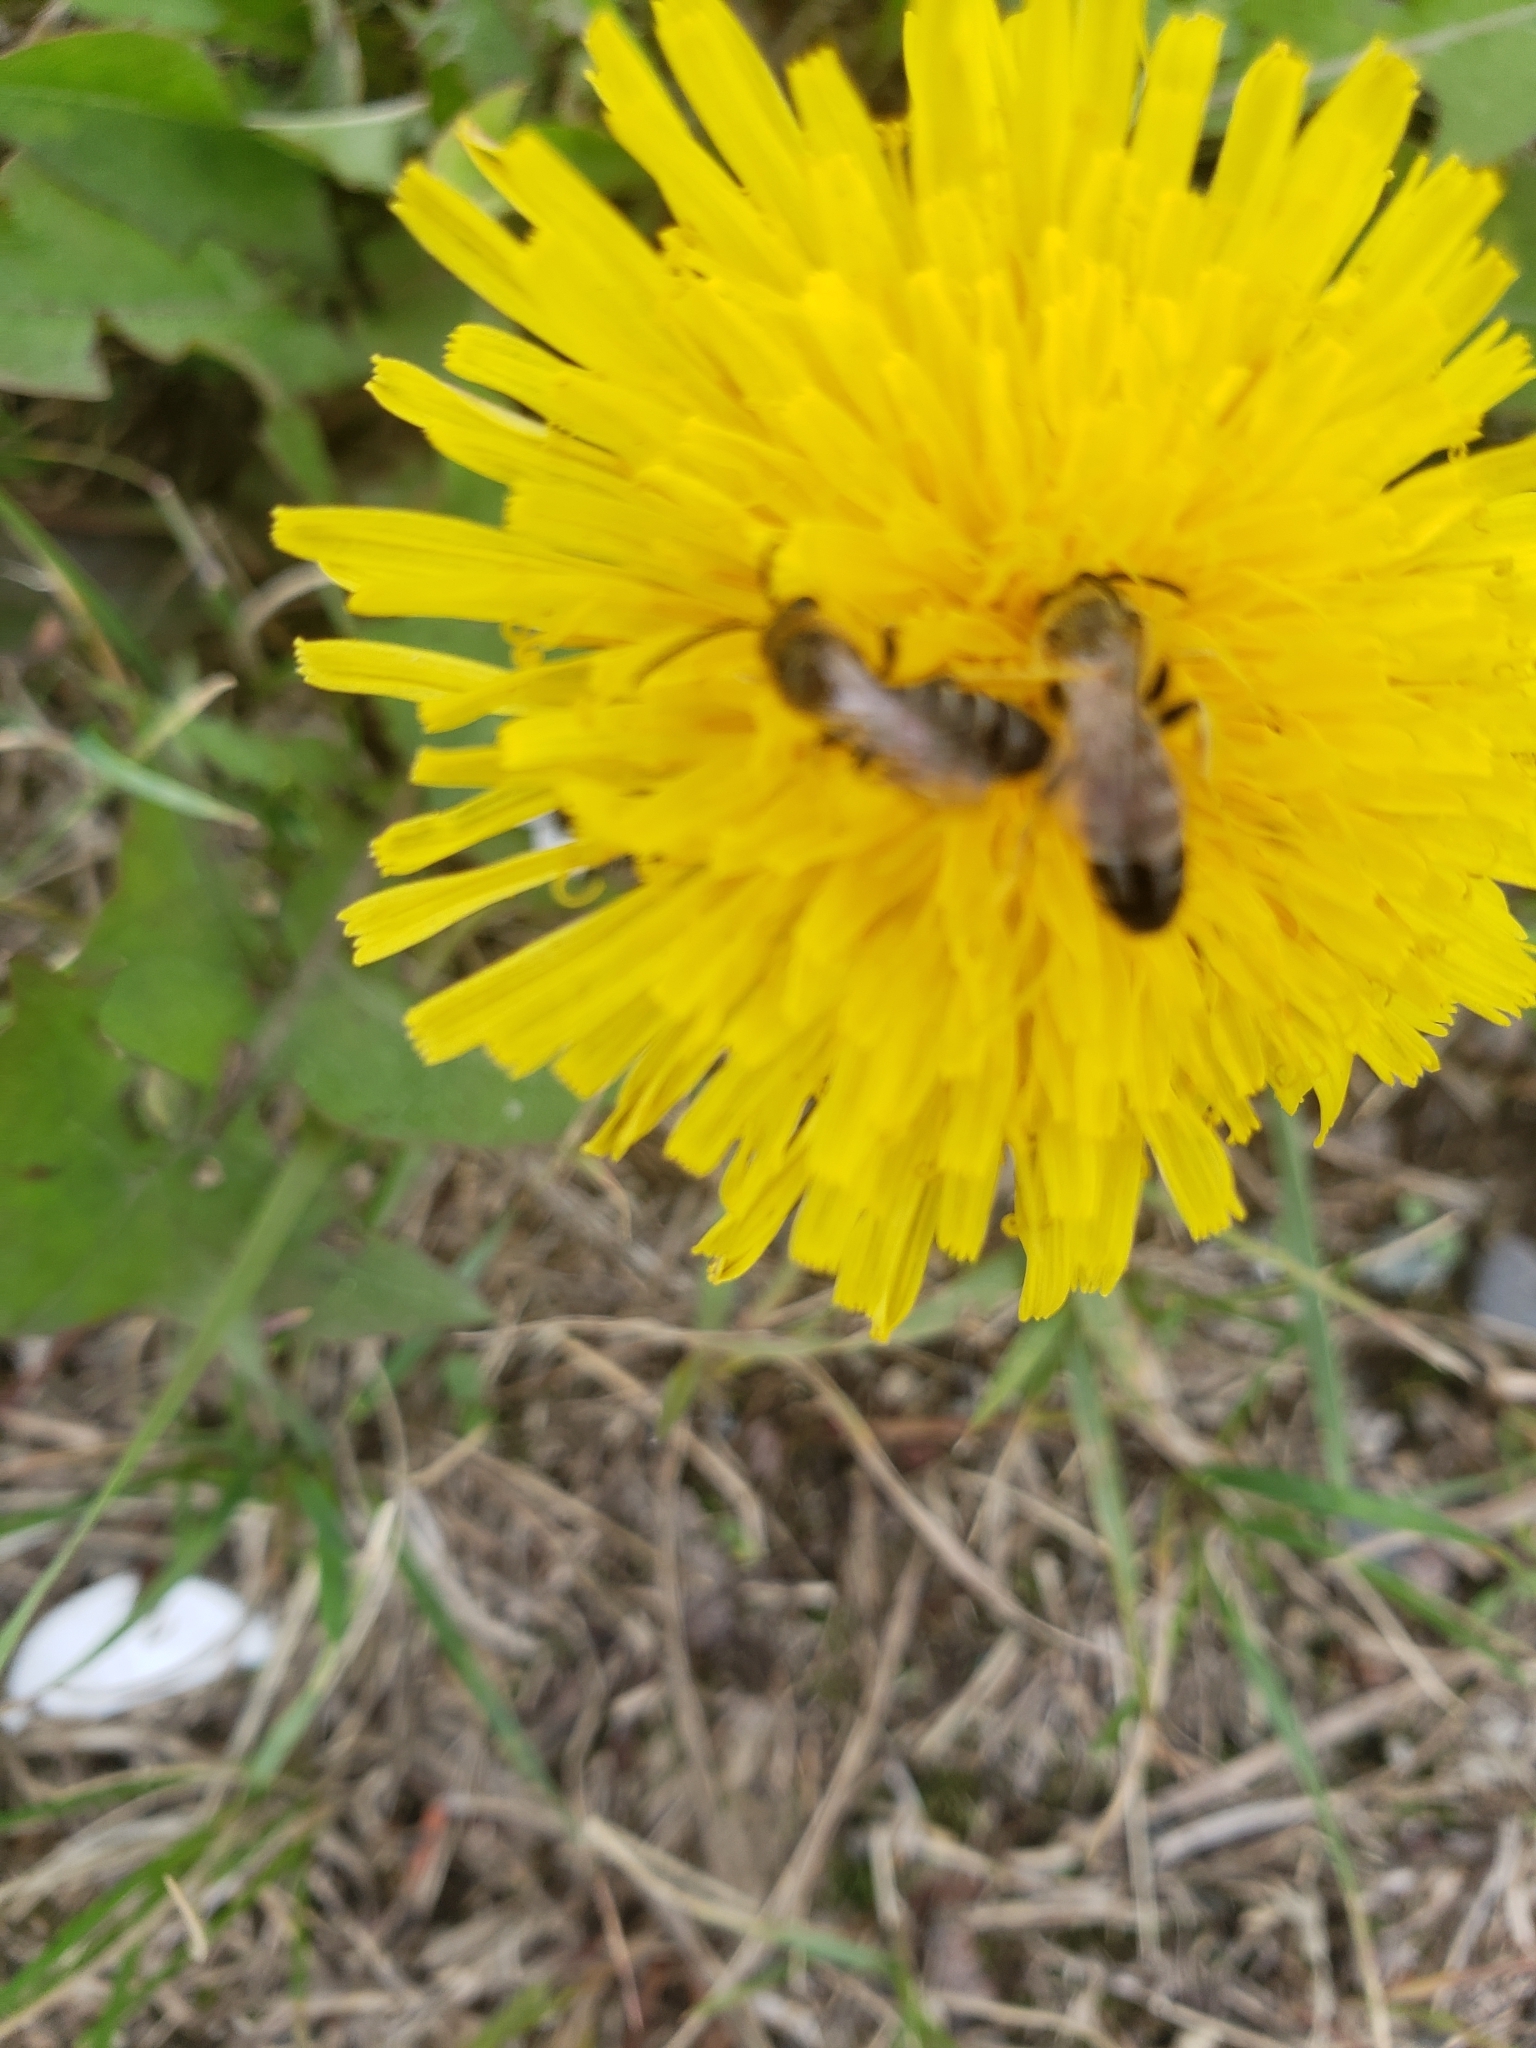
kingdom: Animalia
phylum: Arthropoda
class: Insecta
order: Hymenoptera
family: Halictidae
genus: Halictus
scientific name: Halictus rubicundus
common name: Orange-legged furrow bee
